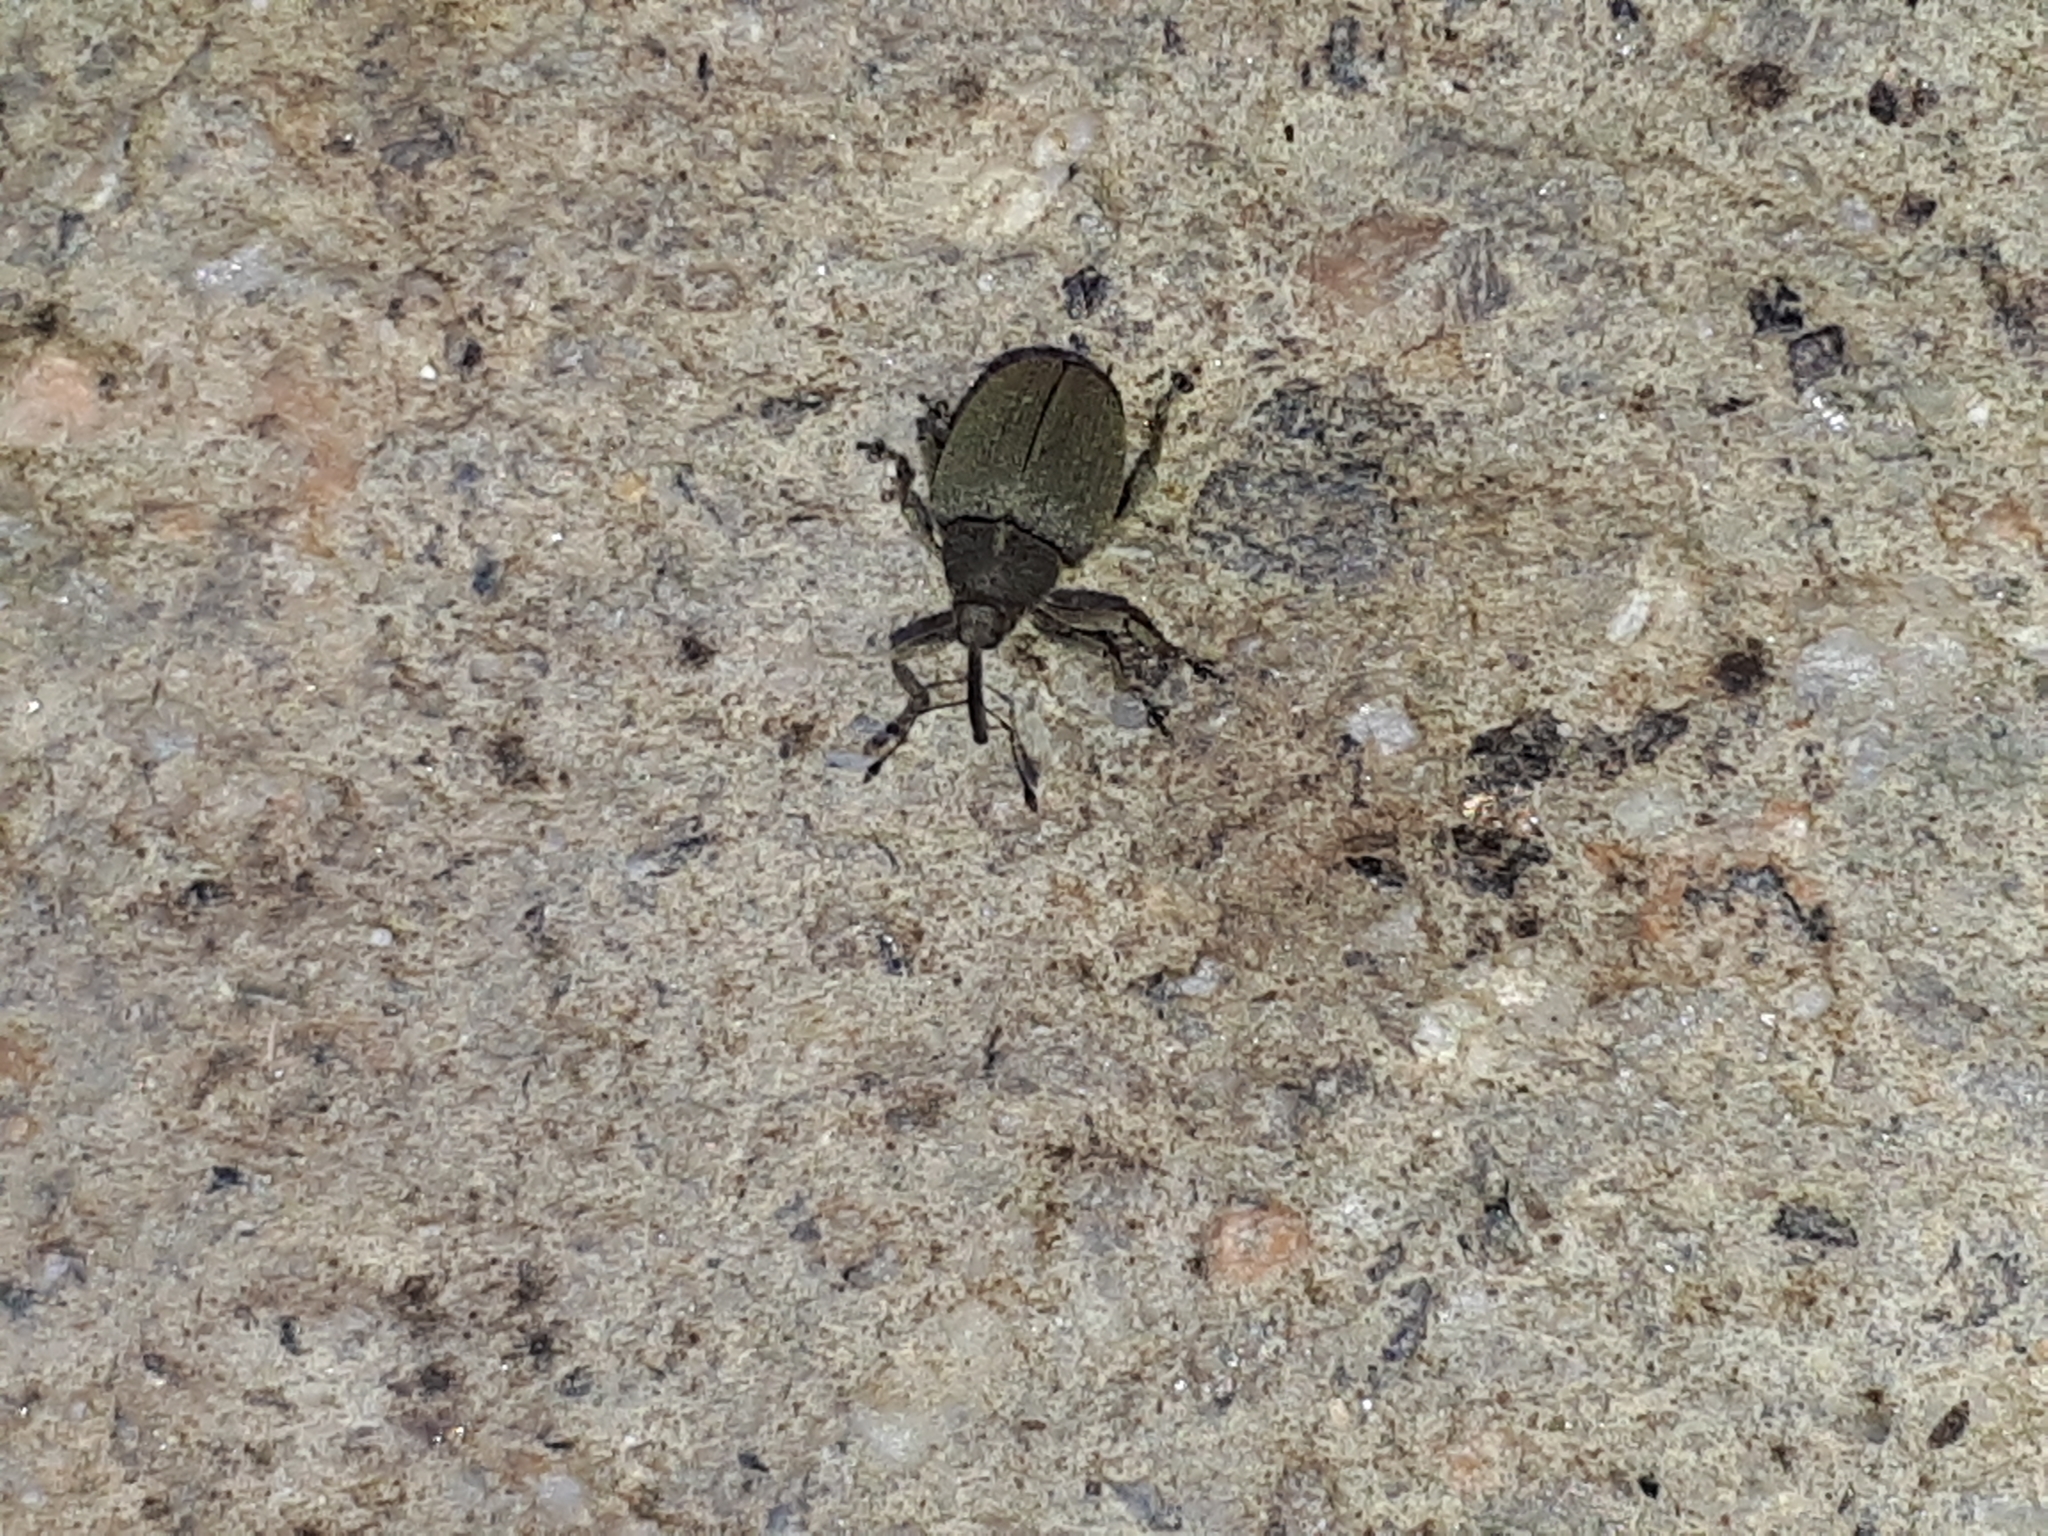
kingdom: Animalia
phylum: Arthropoda
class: Insecta
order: Coleoptera
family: Curculionidae
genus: Ceutorhynchus
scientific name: Ceutorhynchus napi
